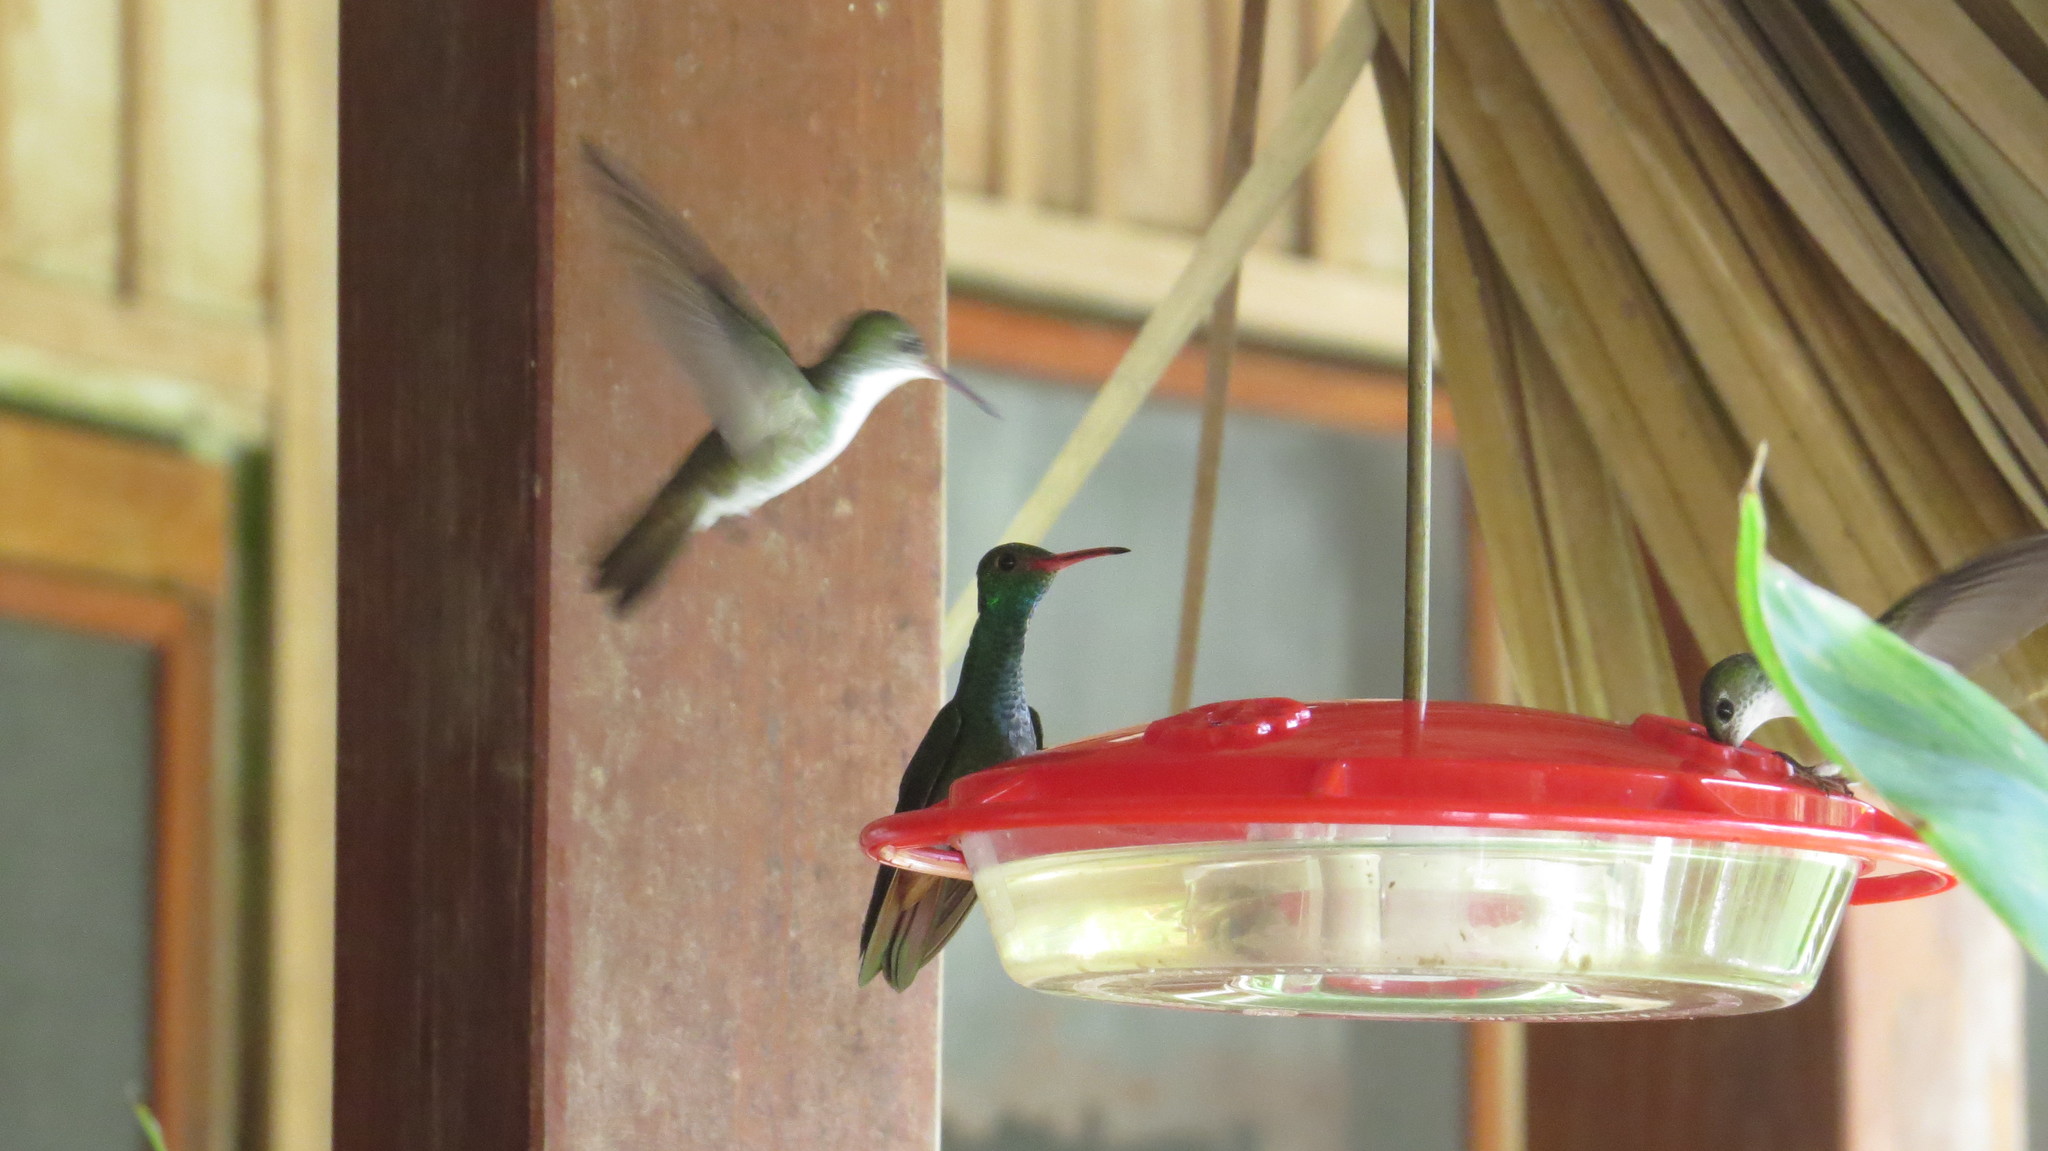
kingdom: Animalia
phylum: Chordata
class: Aves
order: Apodiformes
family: Trochilidae
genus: Amazilia
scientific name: Amazilia tzacatl
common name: Rufous-tailed hummingbird
